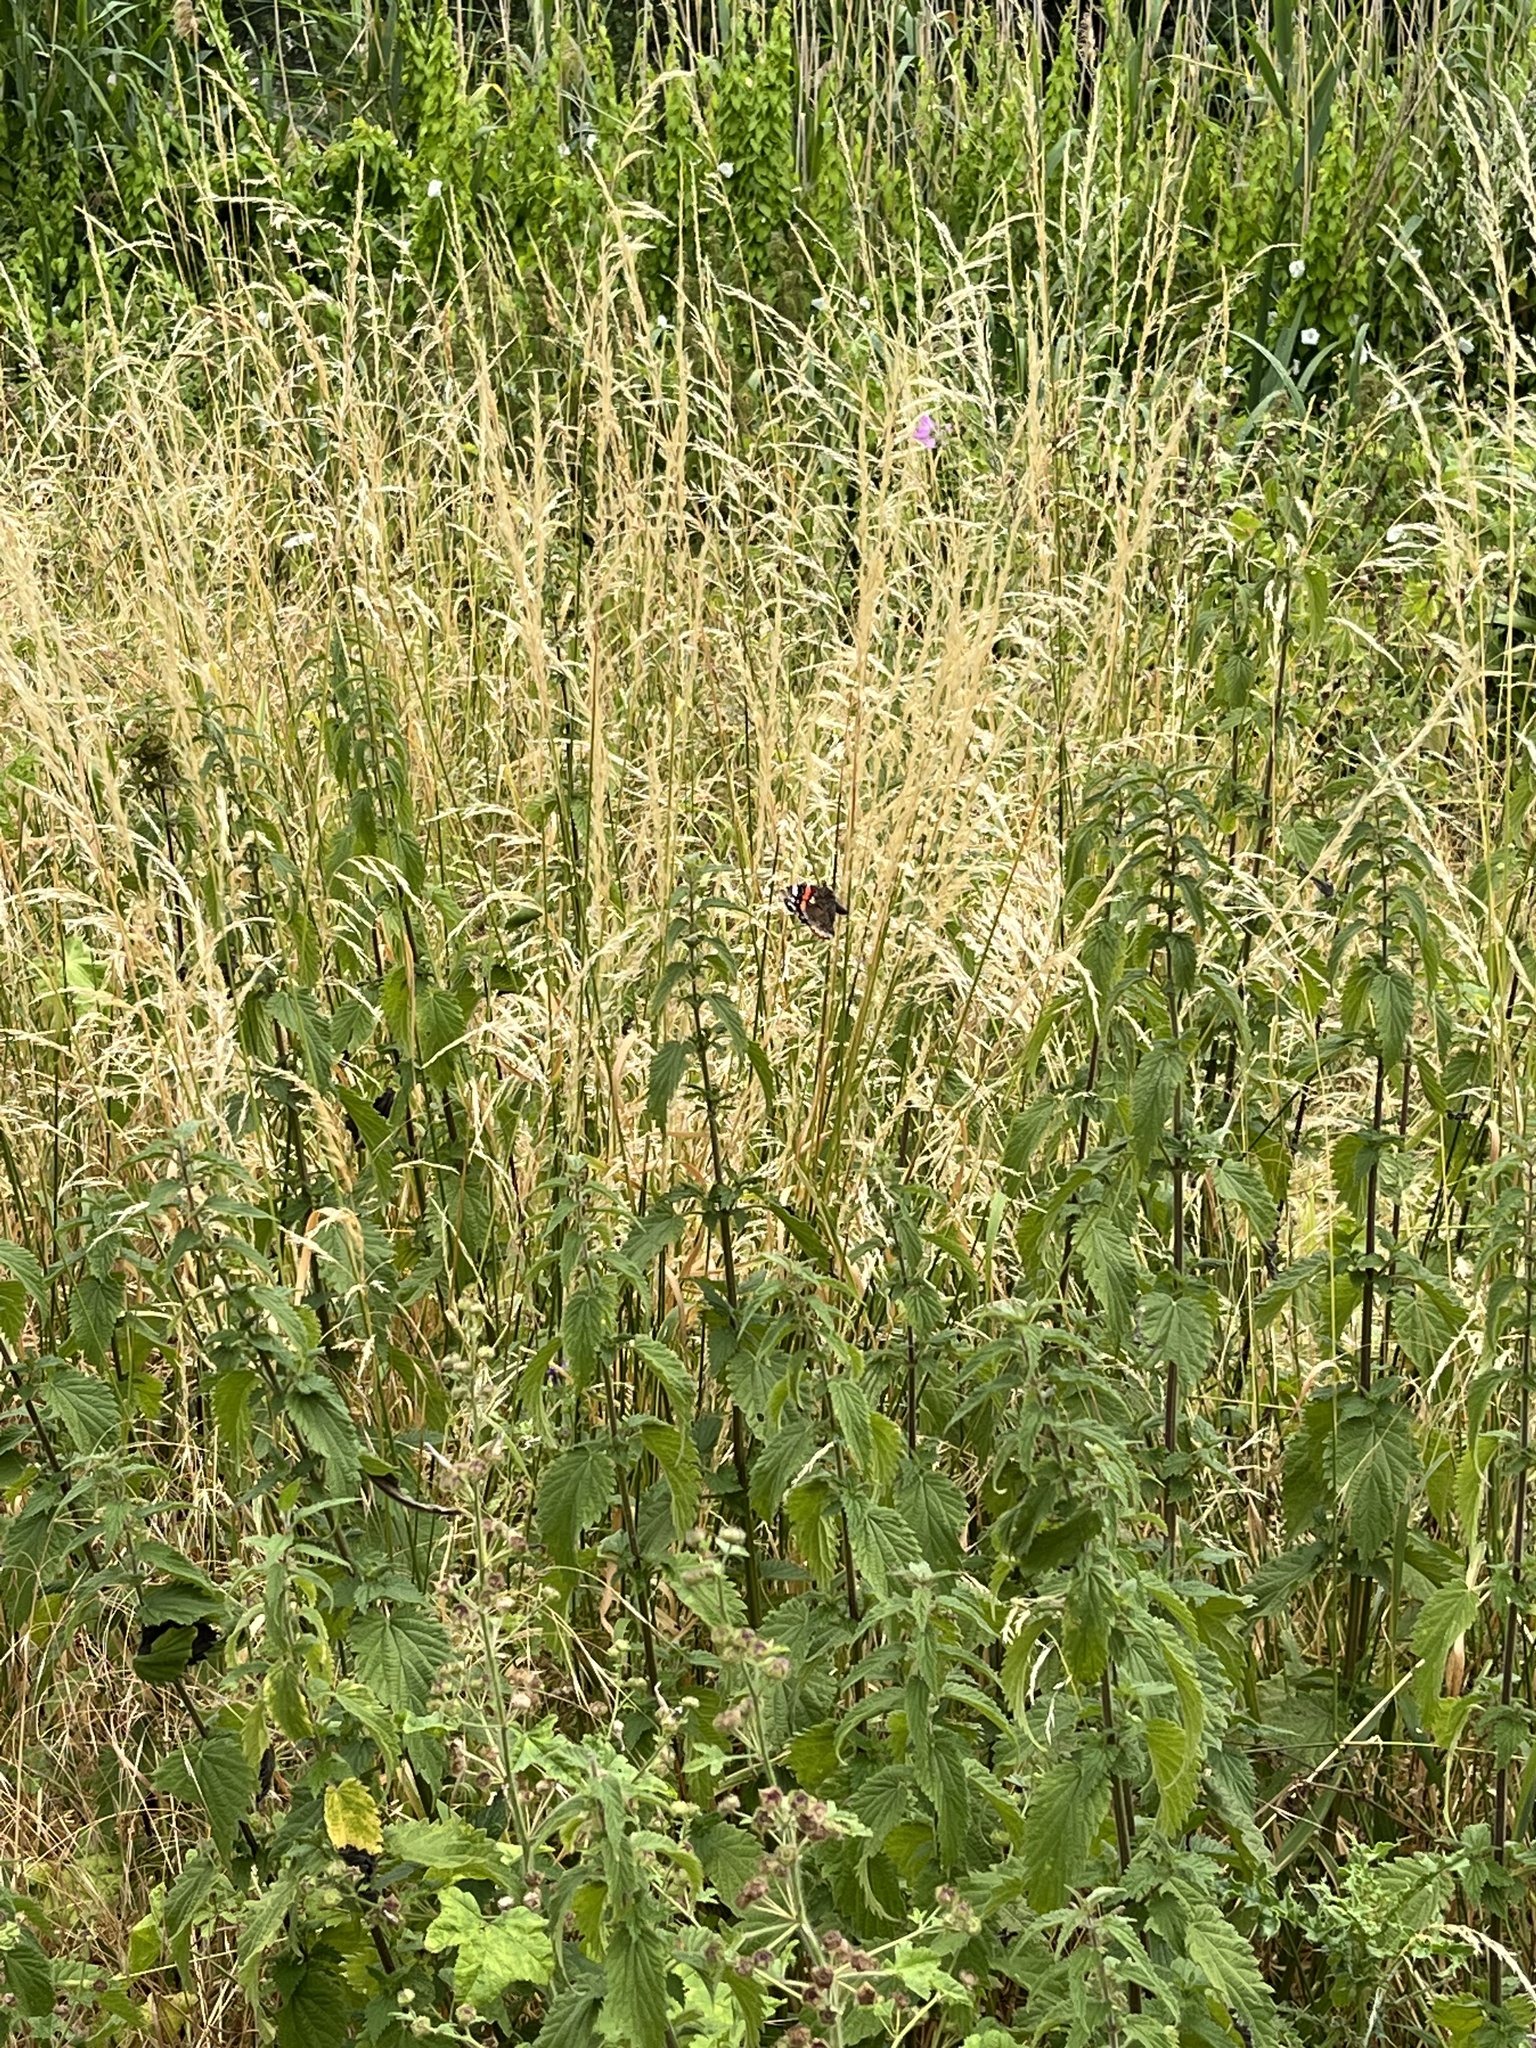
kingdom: Animalia
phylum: Arthropoda
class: Insecta
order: Lepidoptera
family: Nymphalidae
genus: Vanessa
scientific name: Vanessa atalanta
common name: Red admiral
